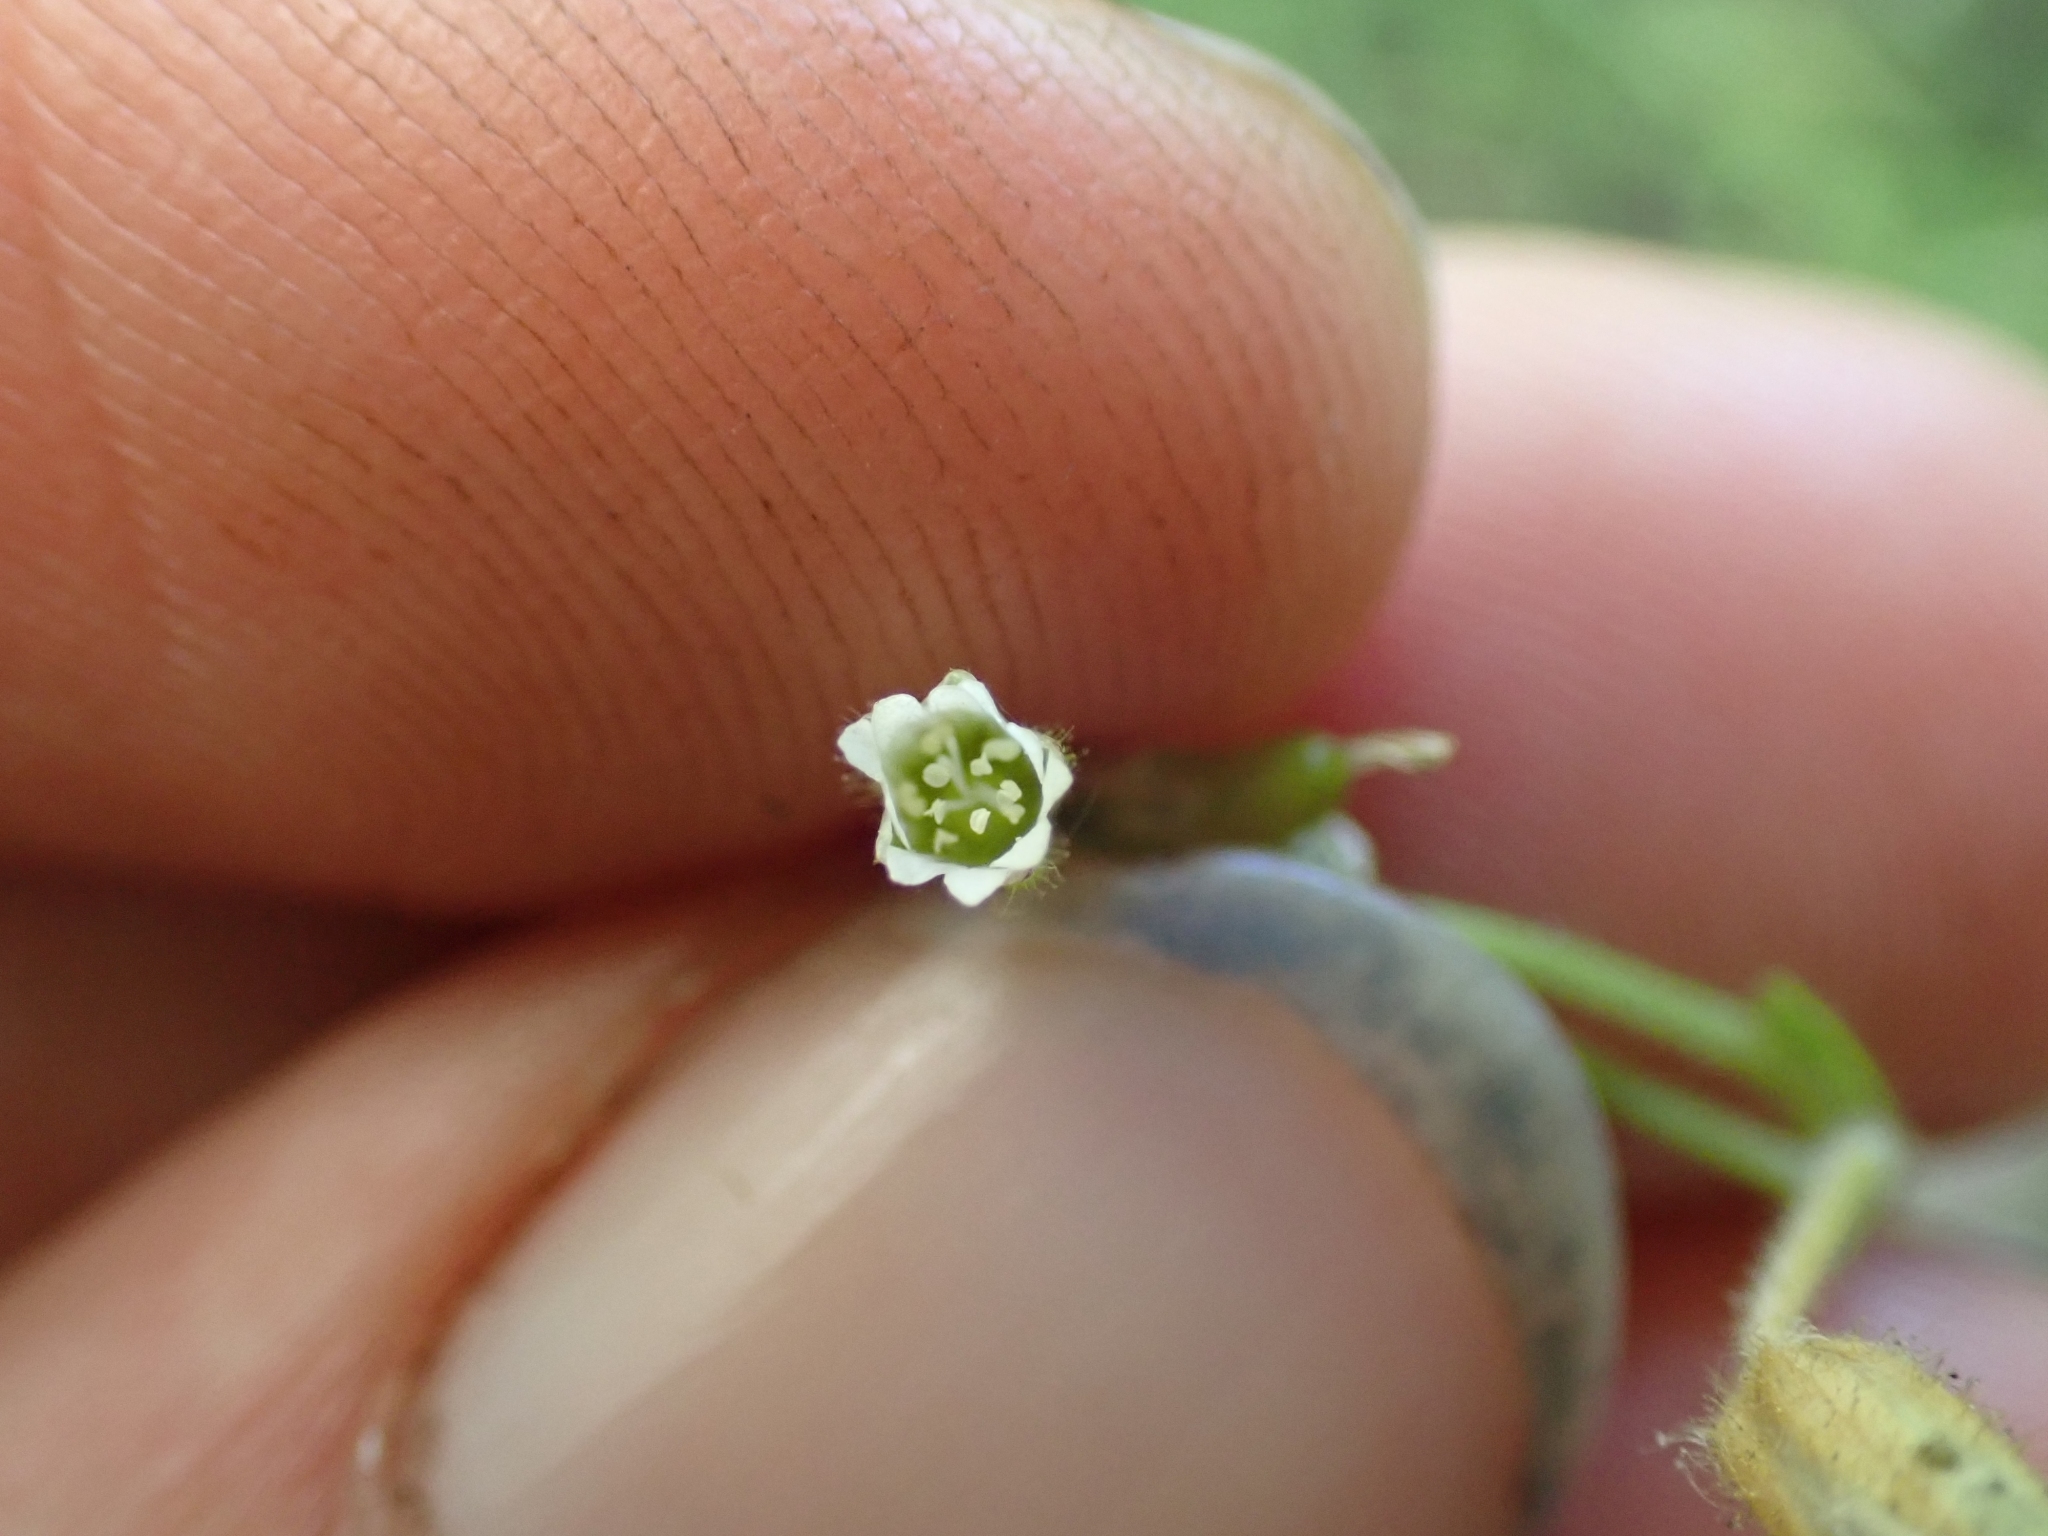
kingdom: Plantae
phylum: Tracheophyta
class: Magnoliopsida
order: Caryophyllales
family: Caryophyllaceae
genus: Cerastium
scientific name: Cerastium fontanum
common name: Common mouse-ear
